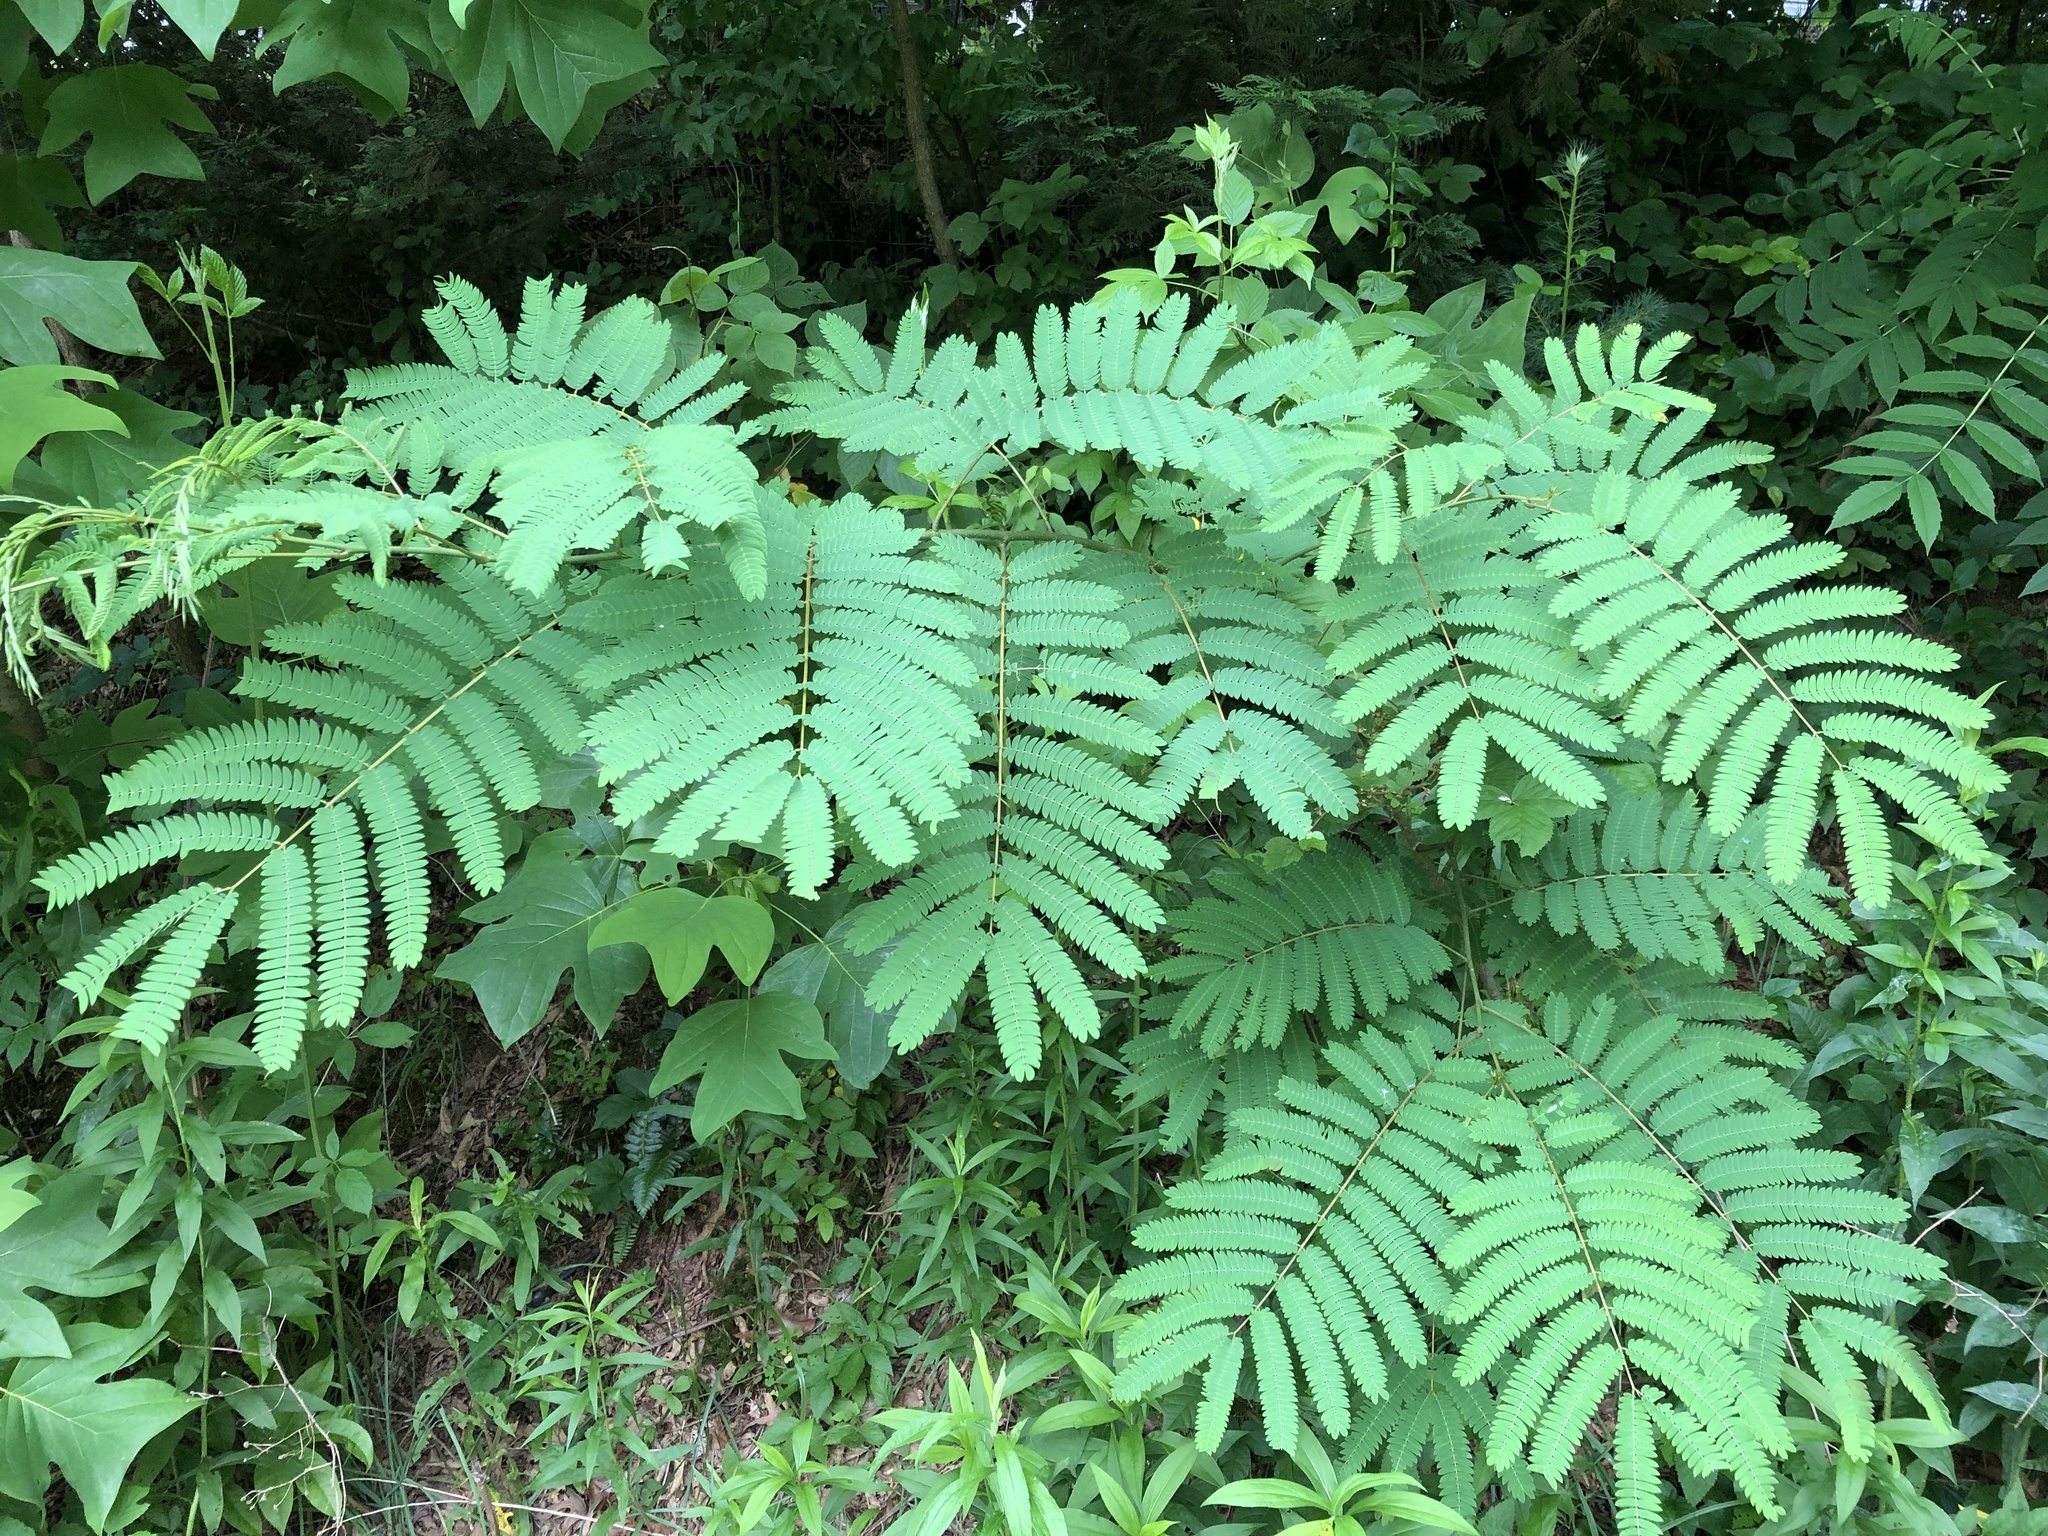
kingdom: Plantae
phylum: Tracheophyta
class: Magnoliopsida
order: Fabales
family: Fabaceae
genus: Albizia
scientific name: Albizia julibrissin
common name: Silktree
